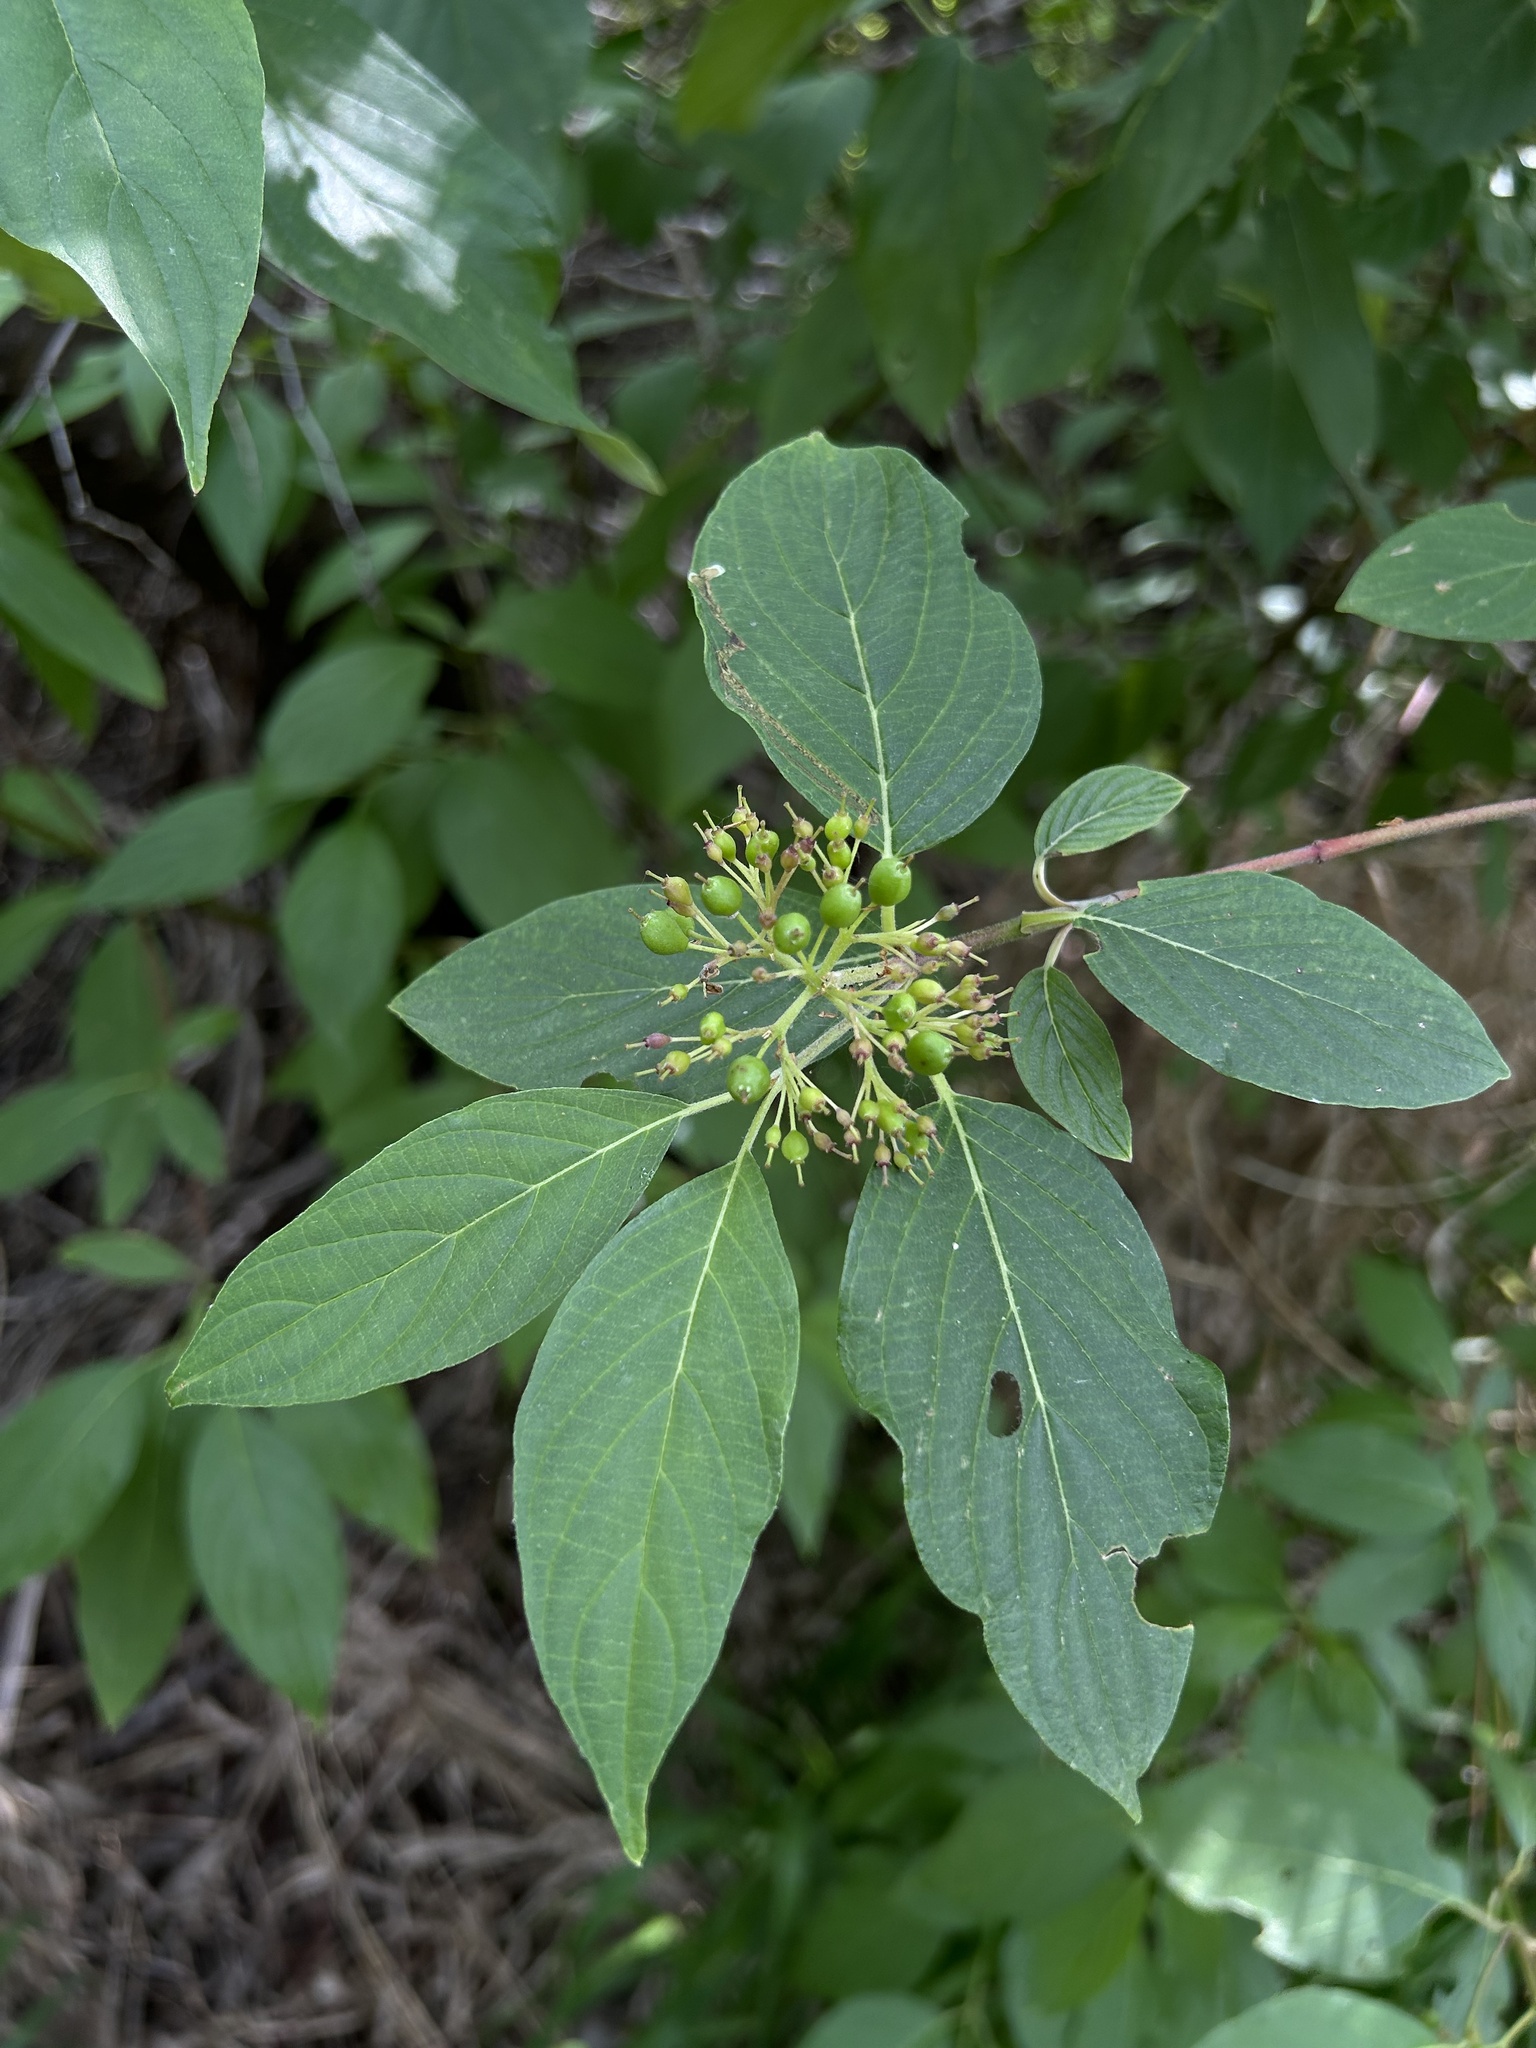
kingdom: Plantae
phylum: Tracheophyta
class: Magnoliopsida
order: Cornales
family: Cornaceae
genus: Cornus
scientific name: Cornus sericea
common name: Red-osier dogwood
